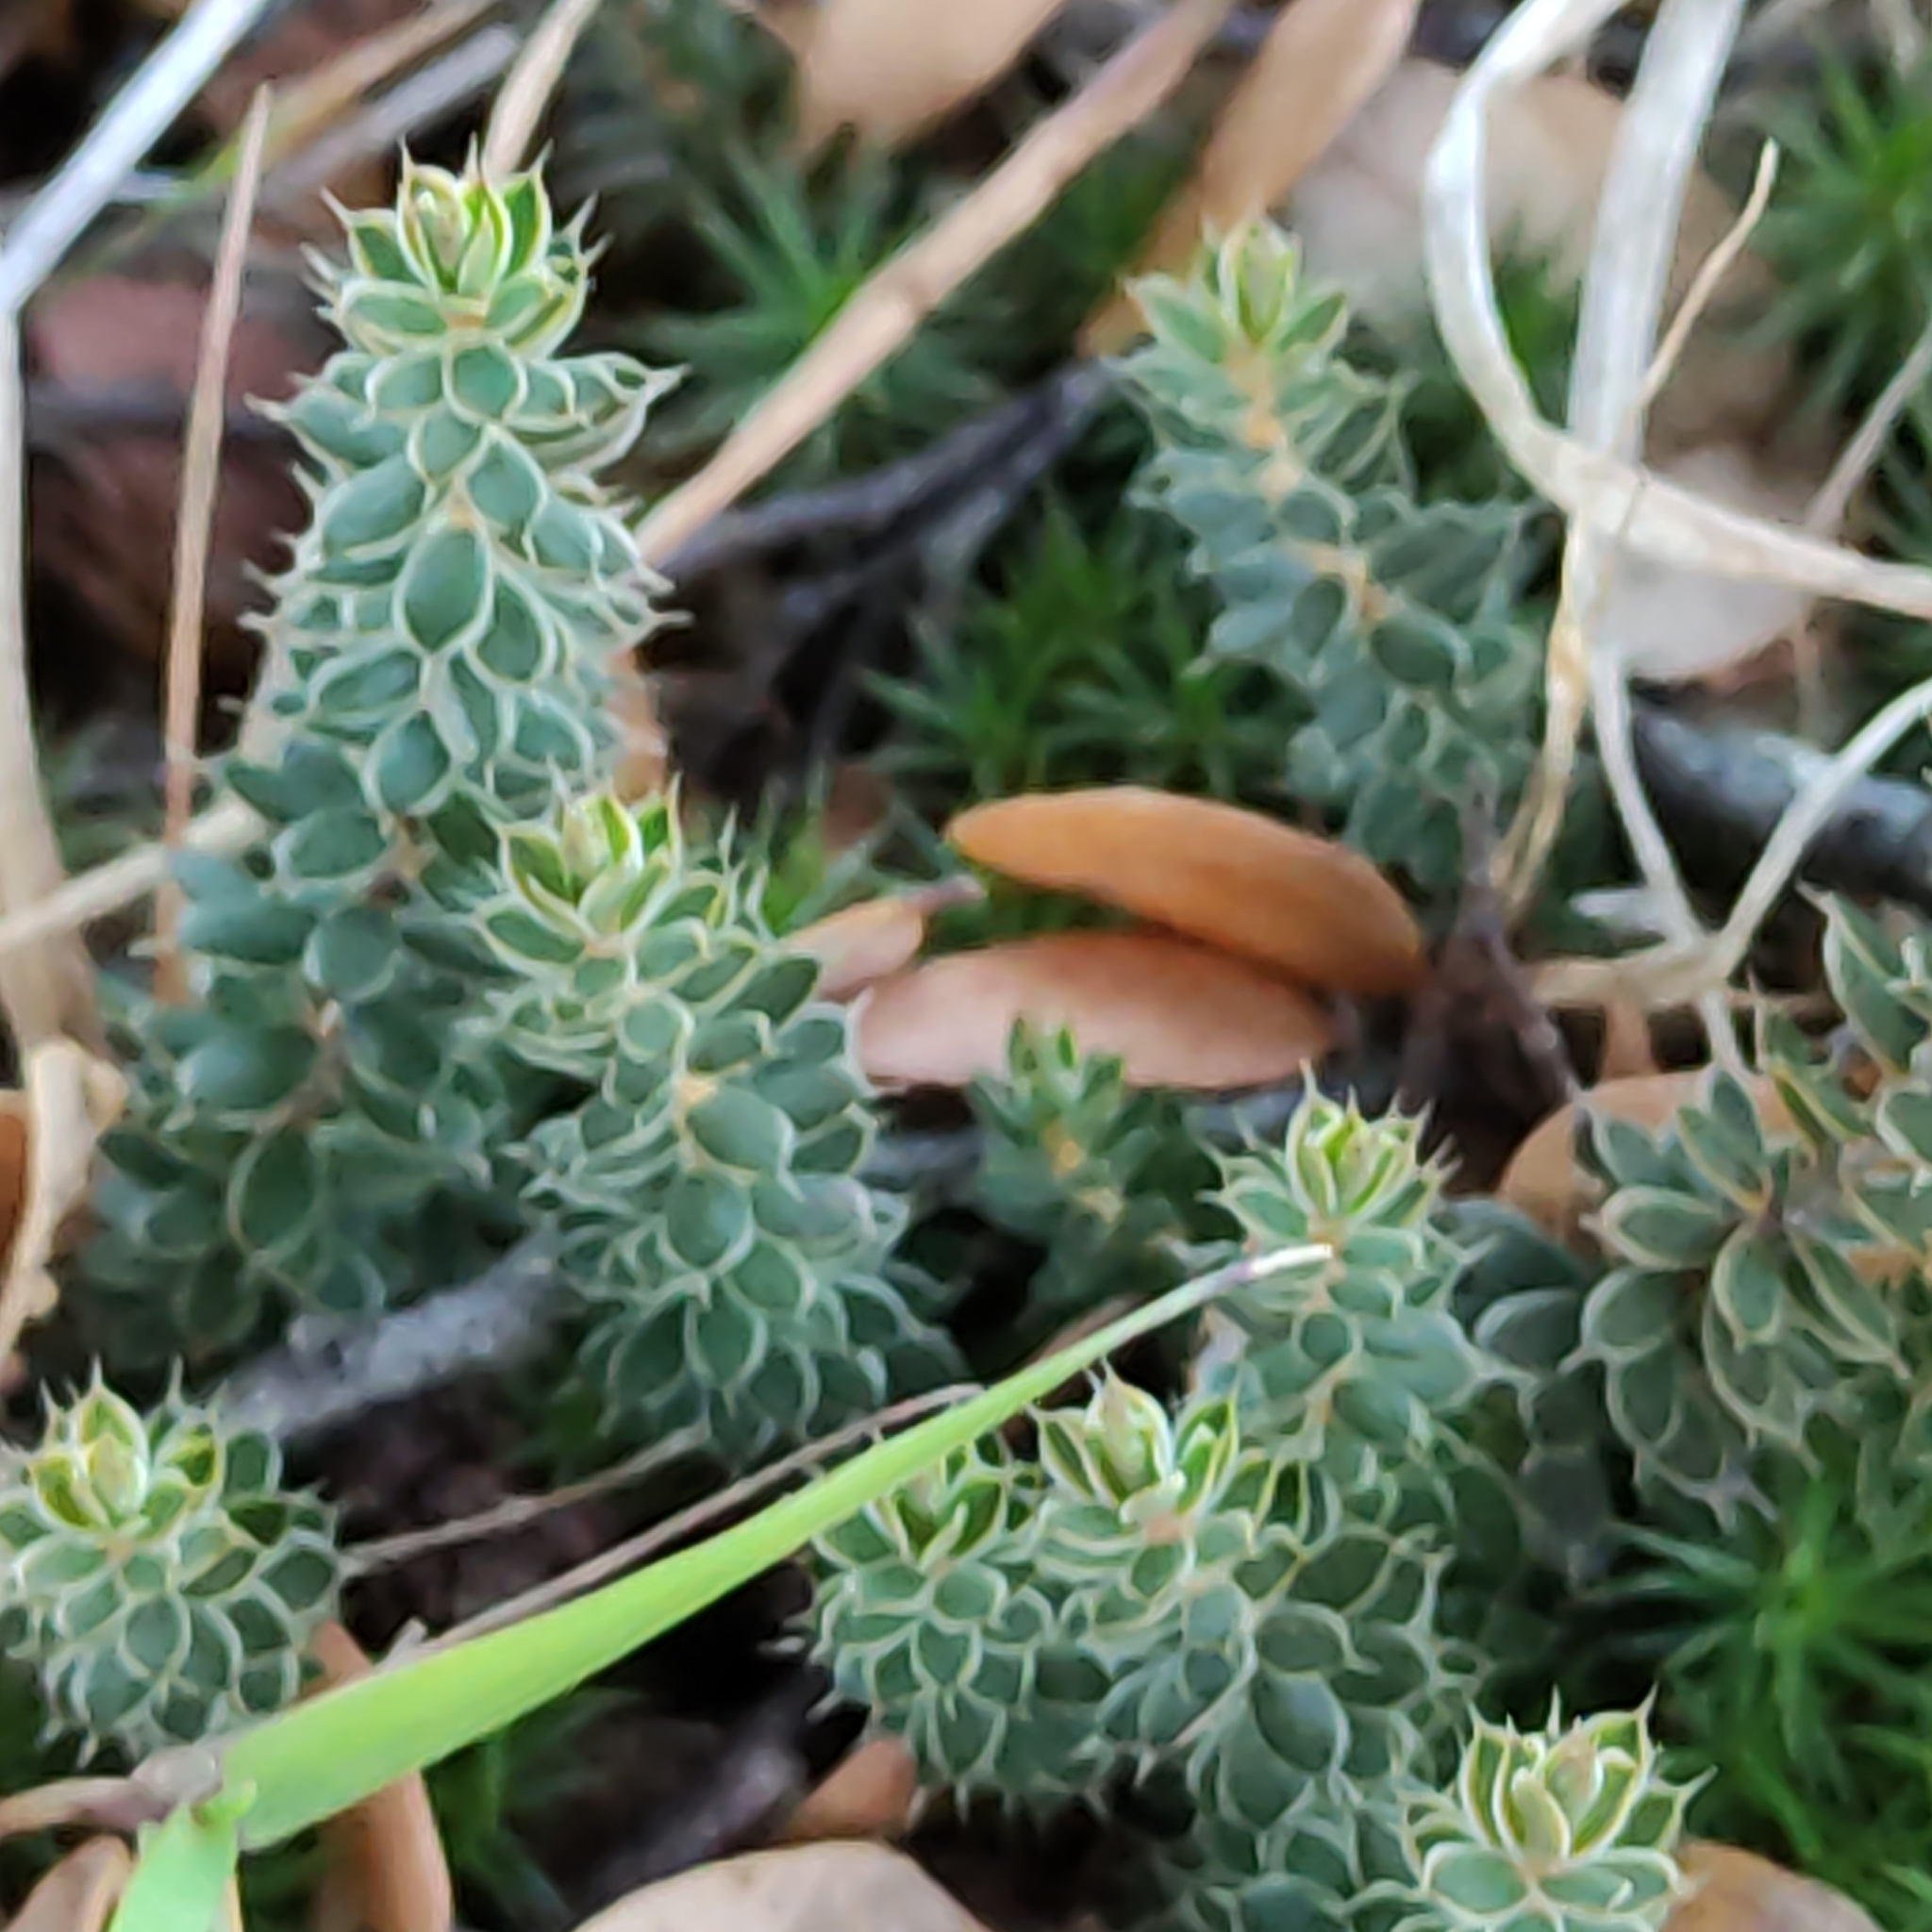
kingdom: Plantae
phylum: Tracheophyta
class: Magnoliopsida
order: Ericales
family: Ericaceae
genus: Styphelia
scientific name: Styphelia nesophila
